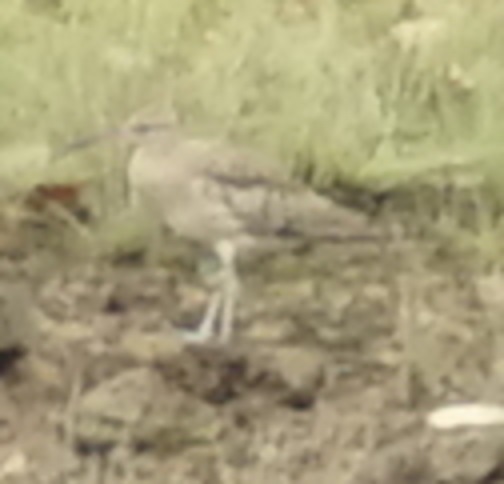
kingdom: Animalia
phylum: Chordata
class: Aves
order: Charadriiformes
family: Scolopacidae
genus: Numenius
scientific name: Numenius phaeopus
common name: Whimbrel
